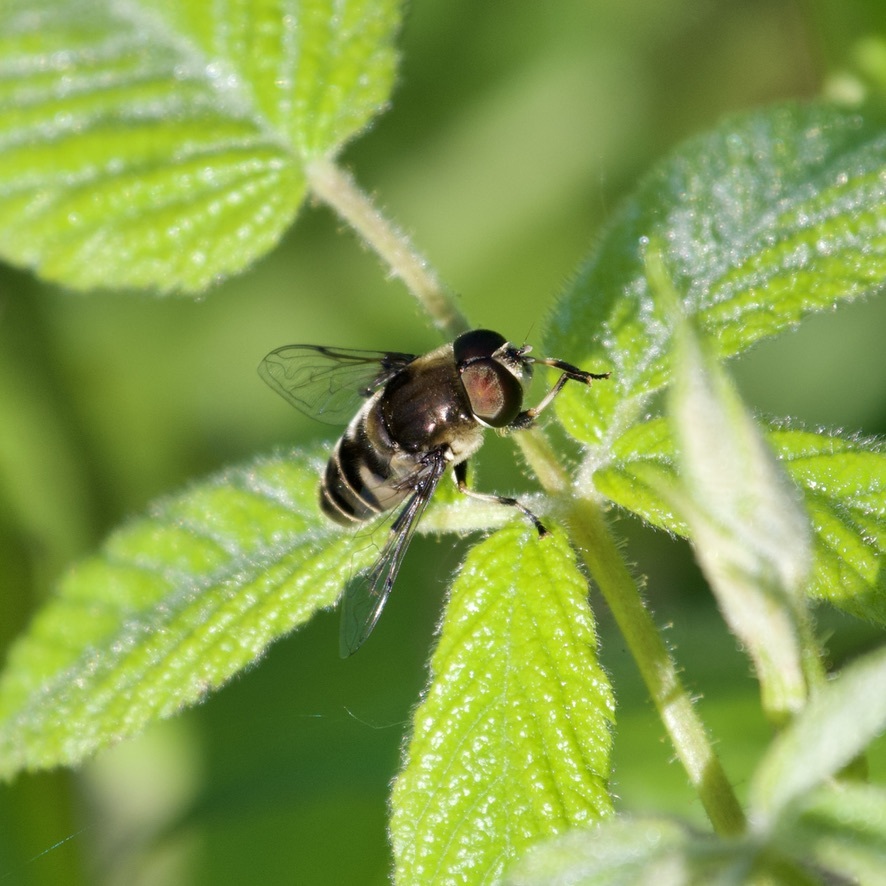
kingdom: Animalia
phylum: Arthropoda
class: Insecta
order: Diptera
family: Syrphidae
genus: Eristalis
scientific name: Eristalis dimidiata
